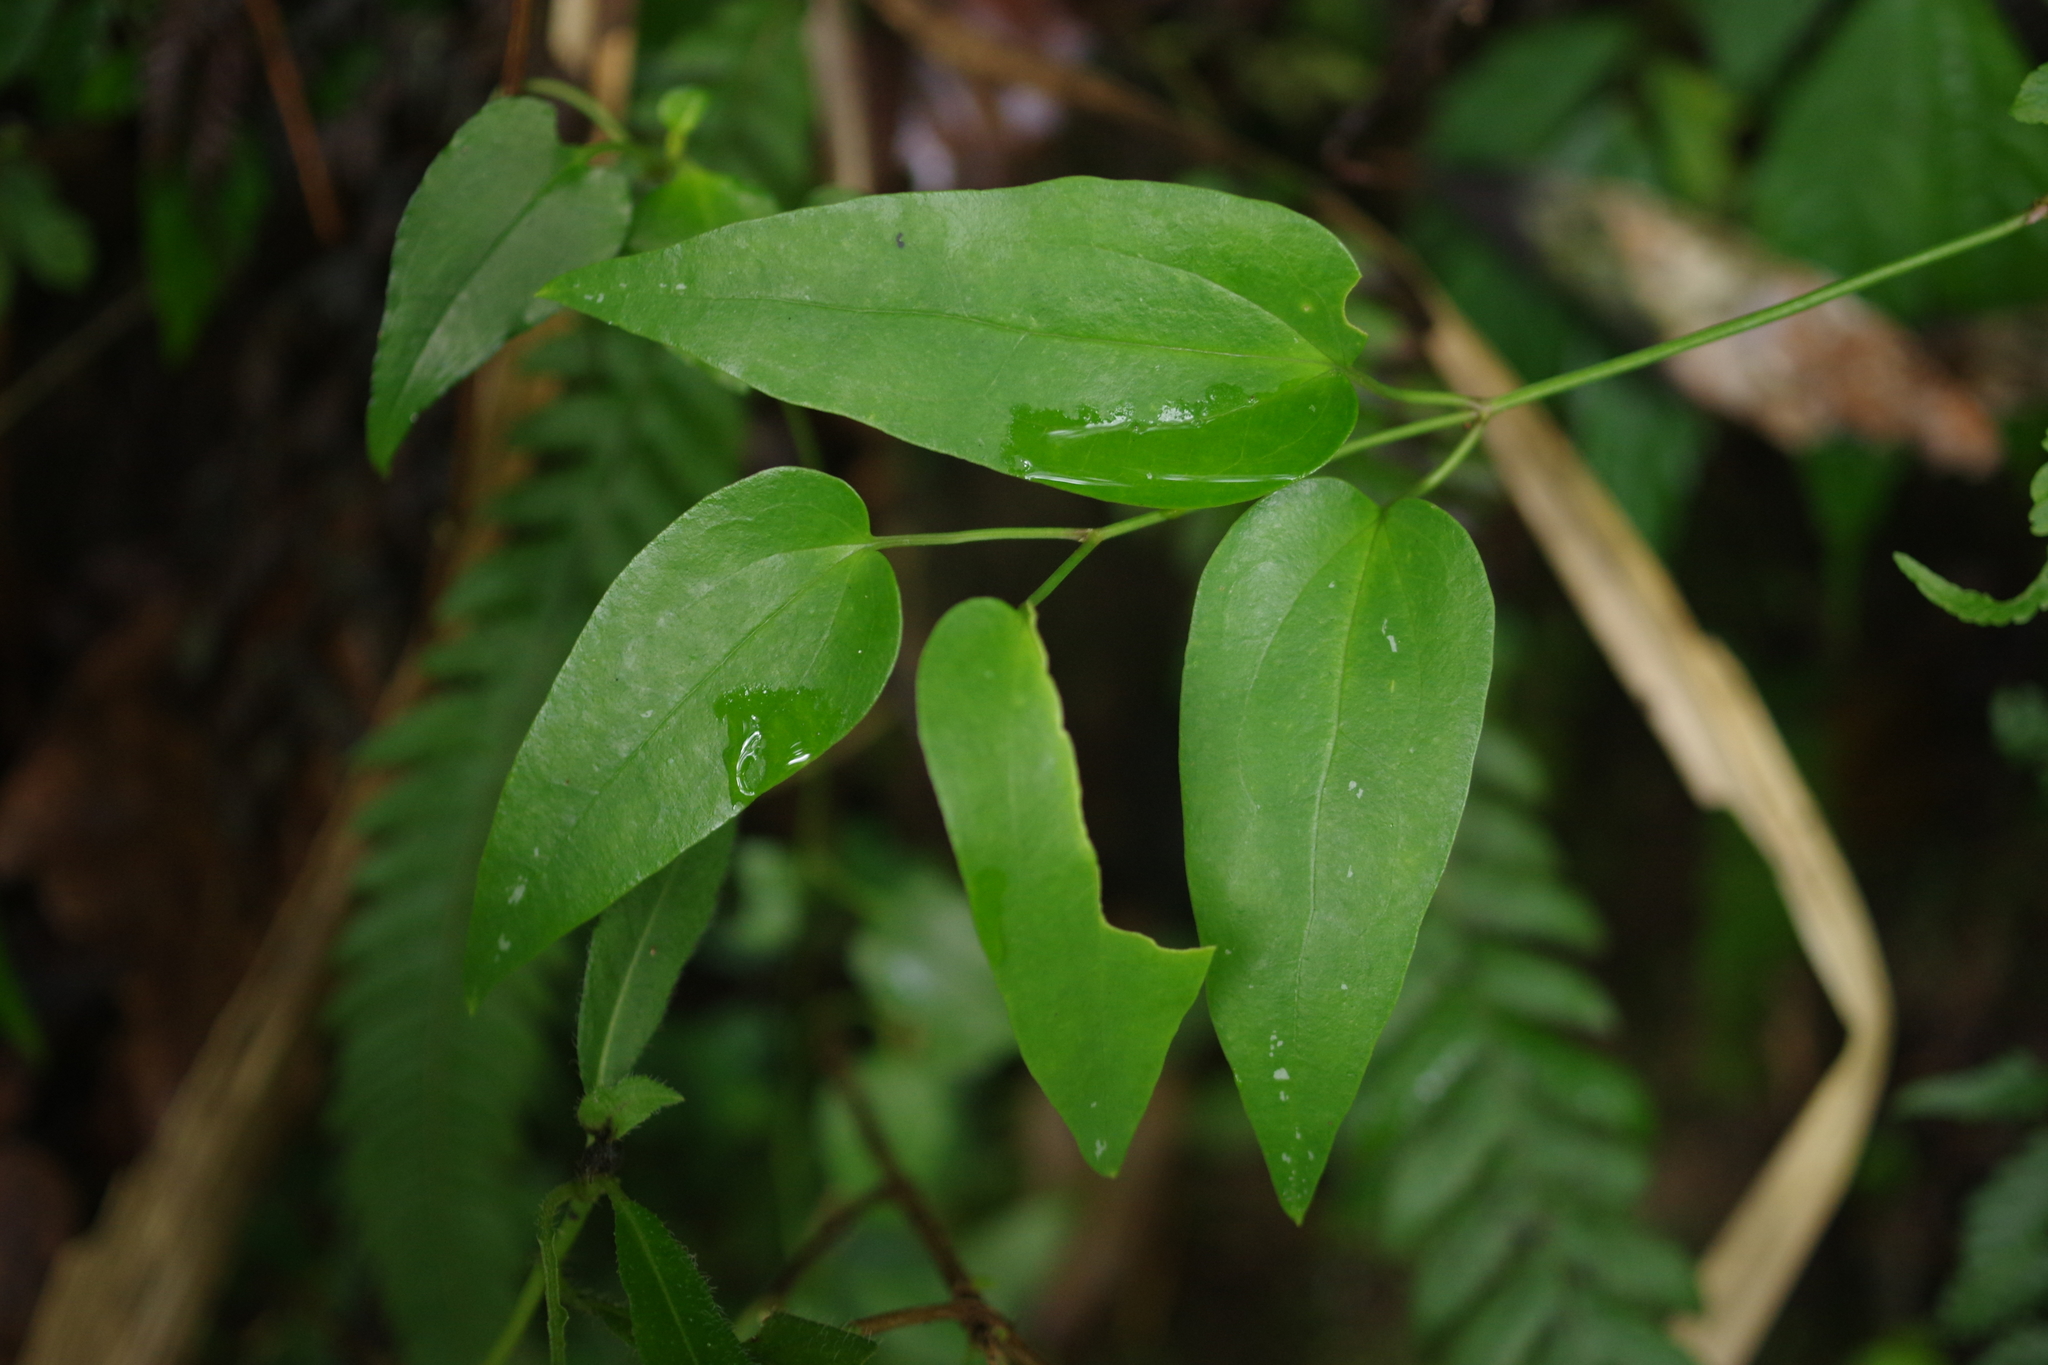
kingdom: Plantae
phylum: Tracheophyta
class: Magnoliopsida
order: Ranunculales
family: Ranunculaceae
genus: Clematis
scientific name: Clematis meyeniana
